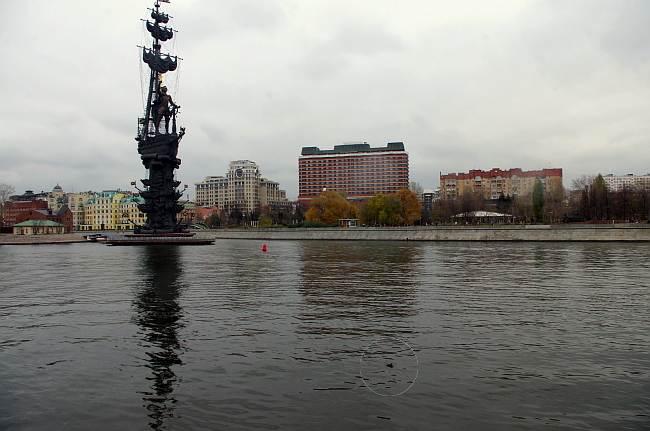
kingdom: Animalia
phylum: Chordata
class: Aves
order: Anseriformes
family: Anatidae
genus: Somateria
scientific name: Somateria spectabilis
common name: King eider
